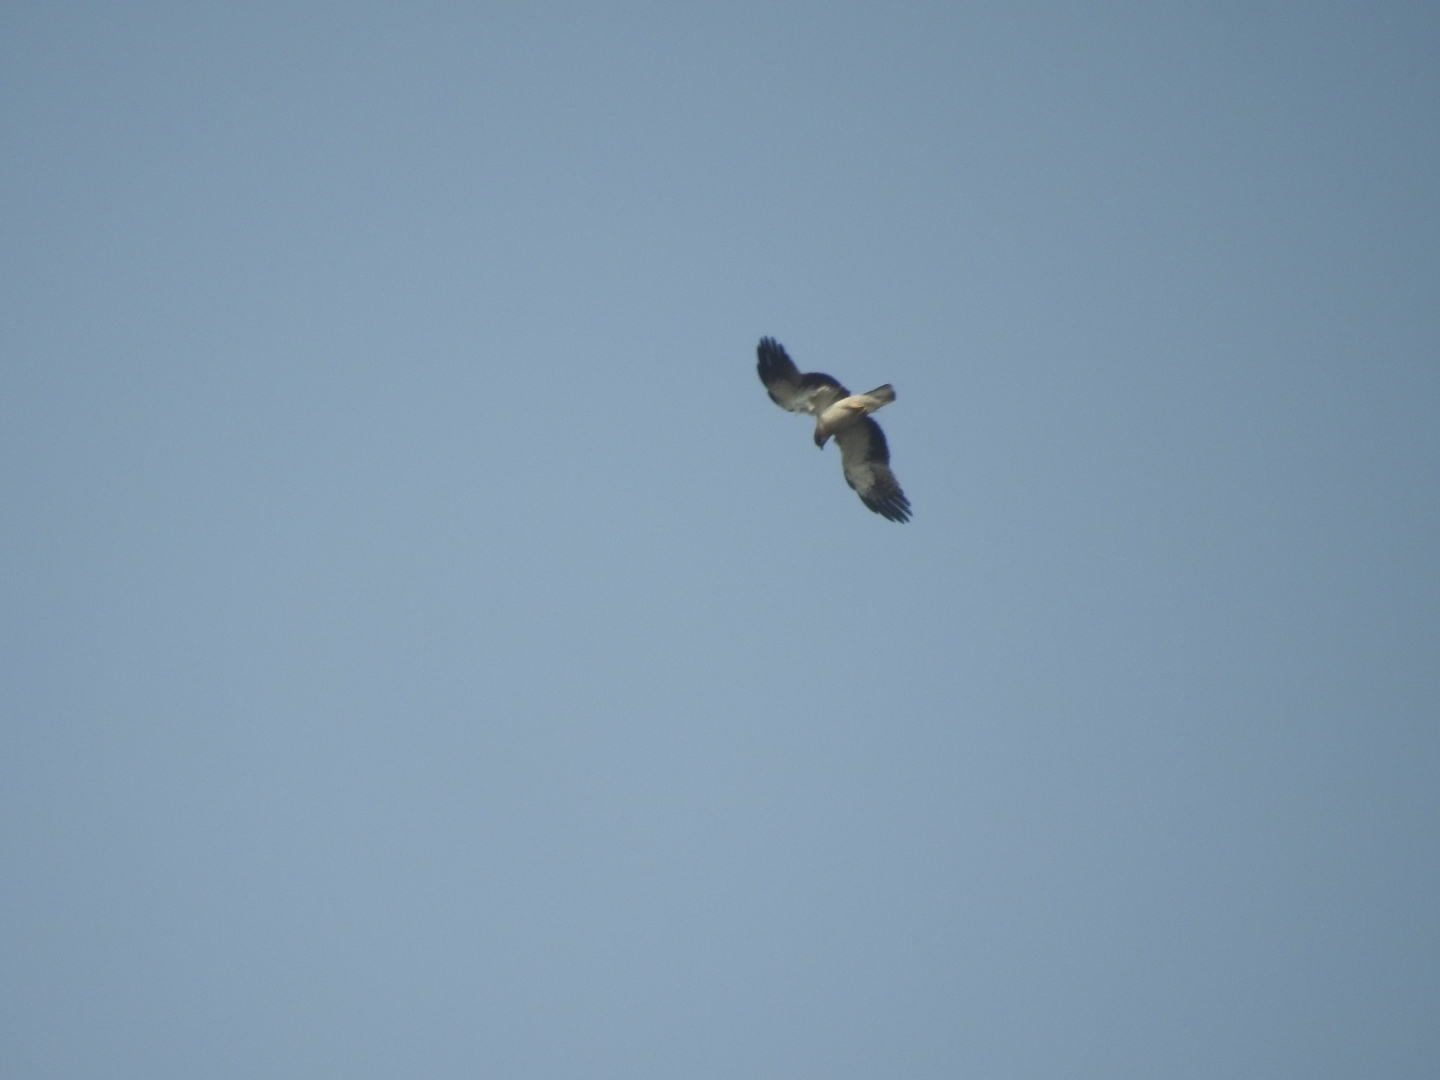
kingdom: Animalia
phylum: Chordata
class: Aves
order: Accipitriformes
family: Accipitridae
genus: Hieraaetus
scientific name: Hieraaetus pennatus
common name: Booted eagle
